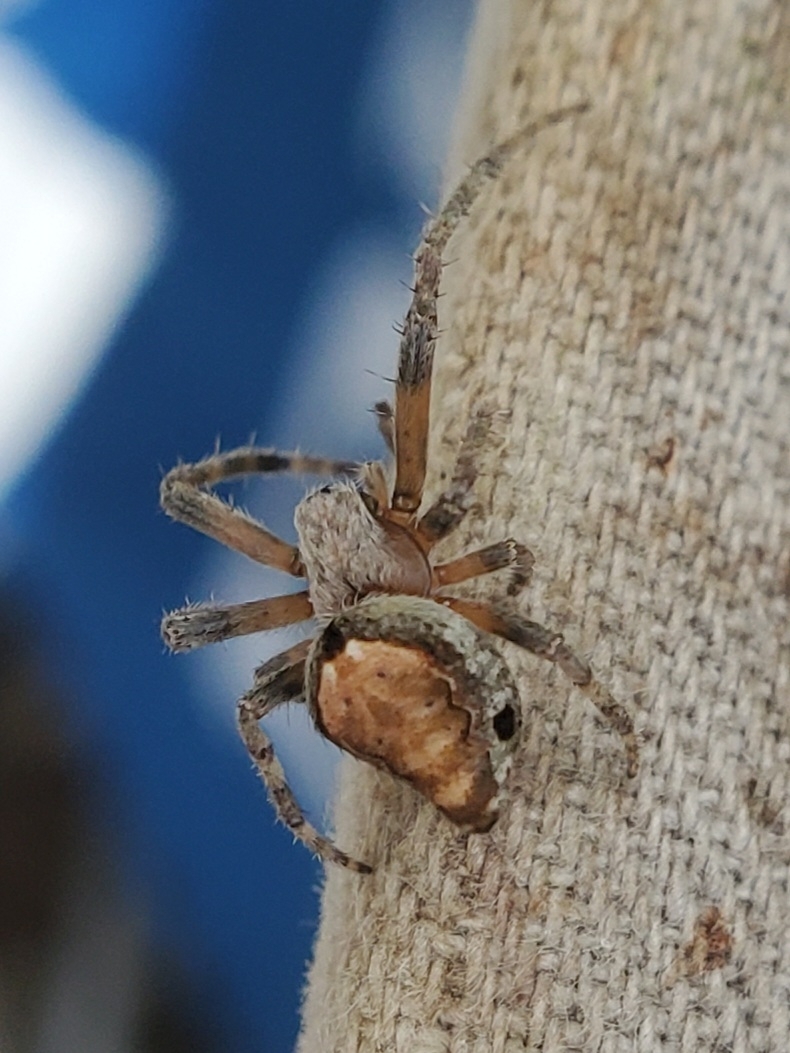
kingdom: Animalia
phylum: Arthropoda
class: Arachnida
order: Araneae
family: Araneidae
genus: Verrucosa
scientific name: Verrucosa arenata
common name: Orb weavers
